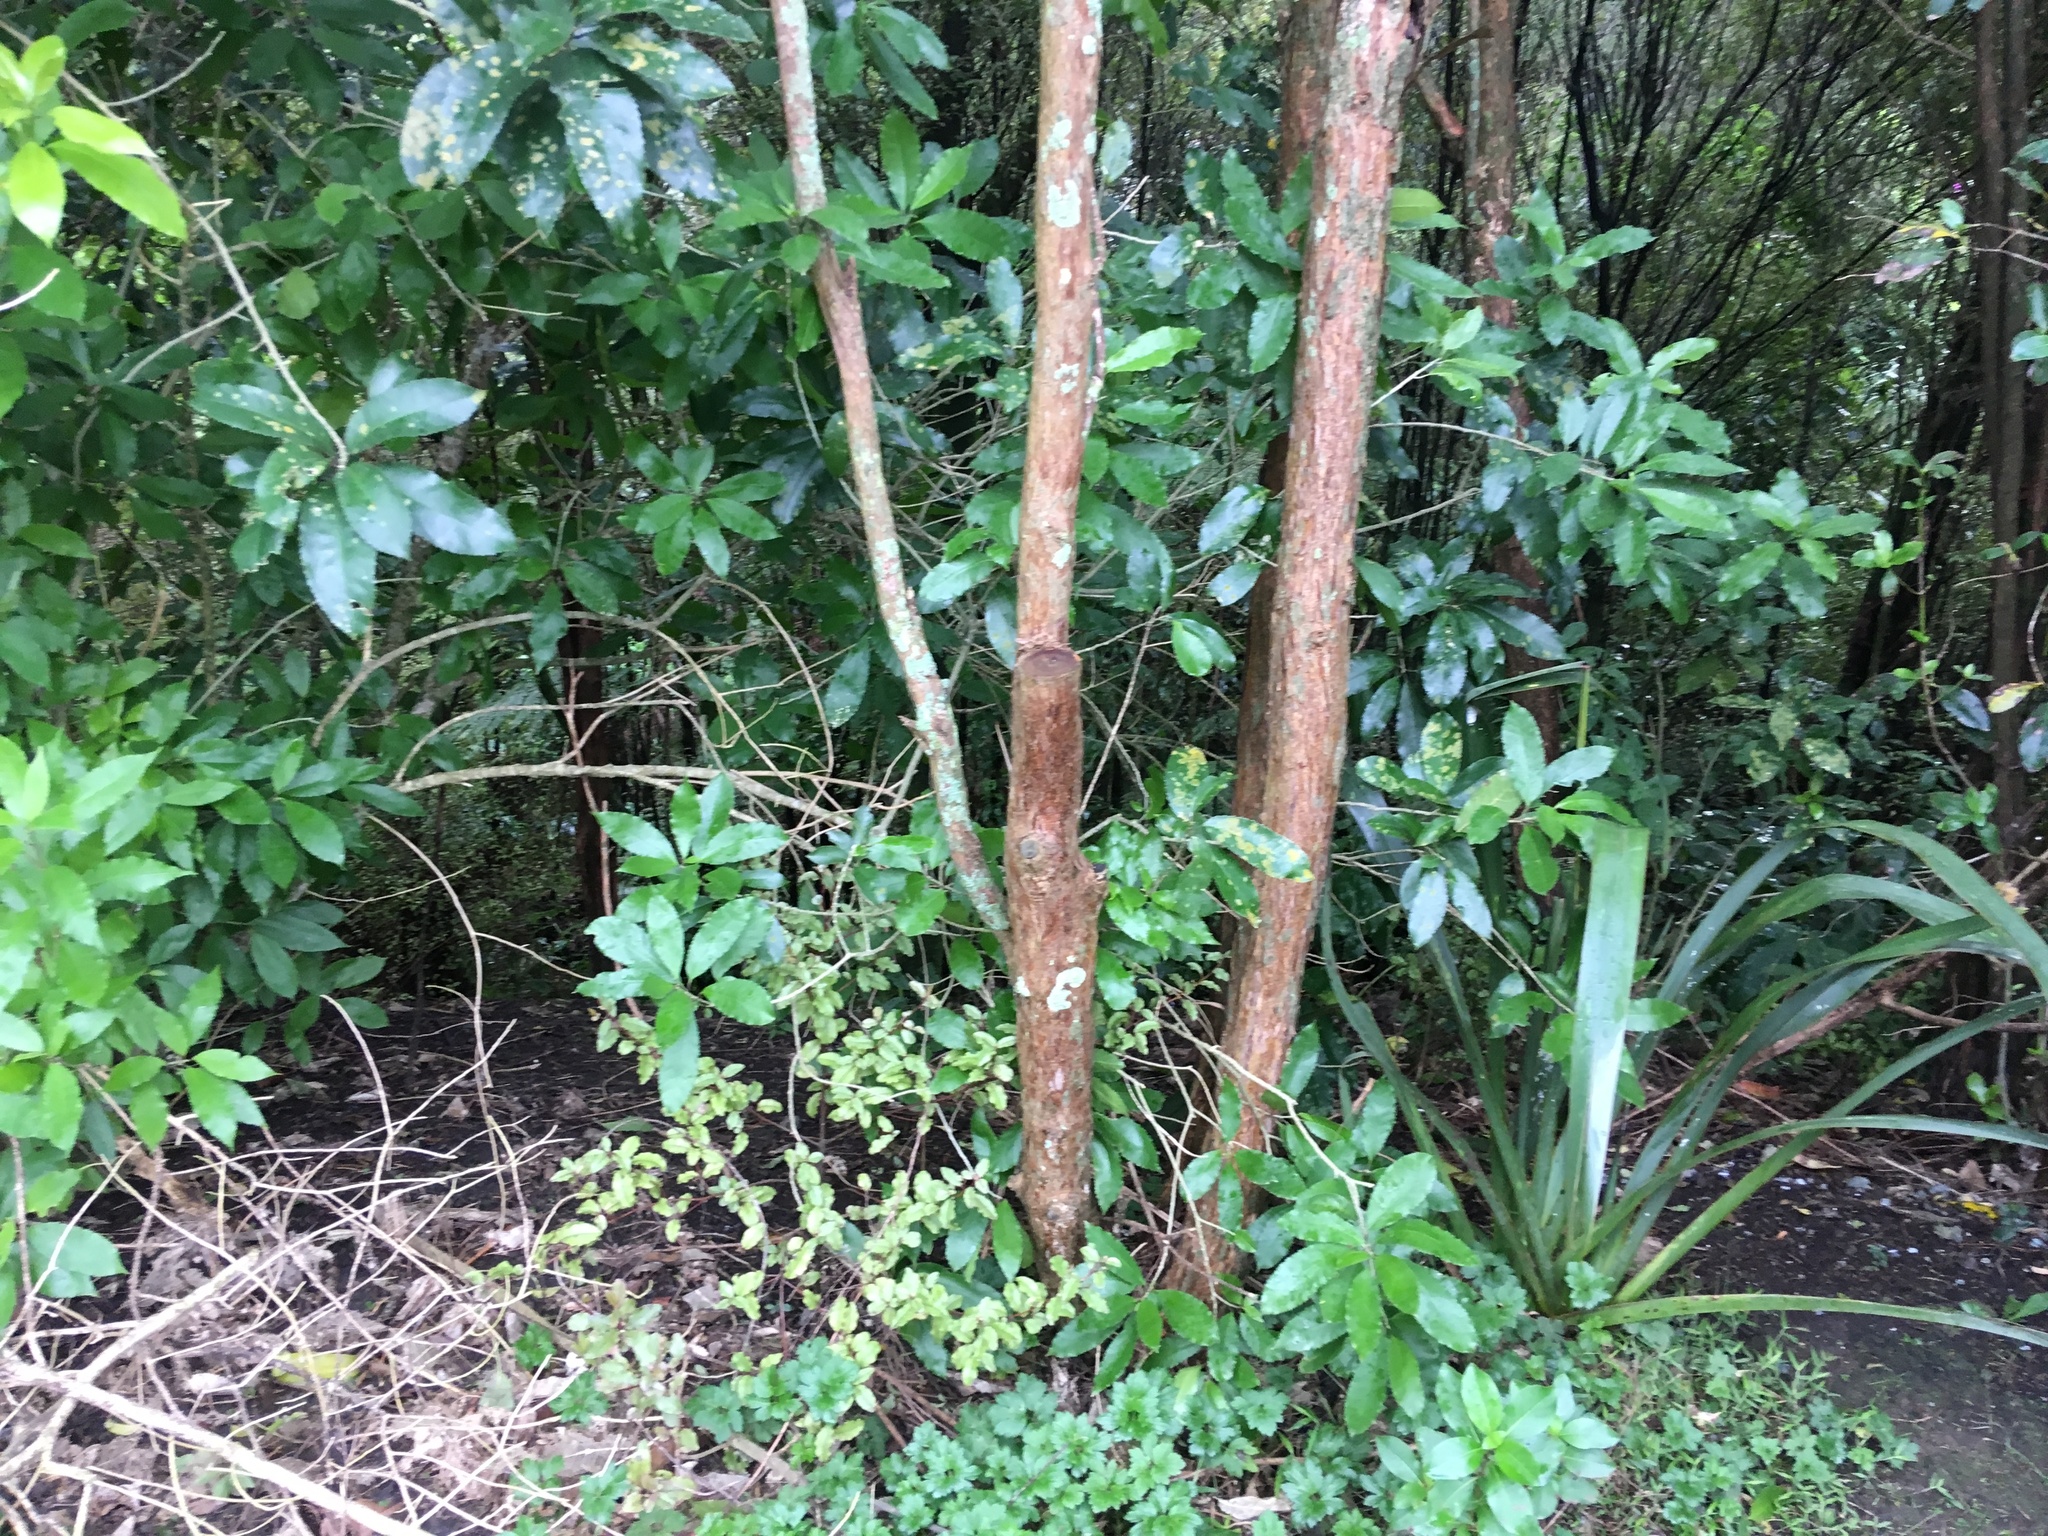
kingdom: Plantae
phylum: Tracheophyta
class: Magnoliopsida
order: Malpighiales
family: Violaceae
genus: Melicytus
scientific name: Melicytus ramiflorus
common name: Mahoe
